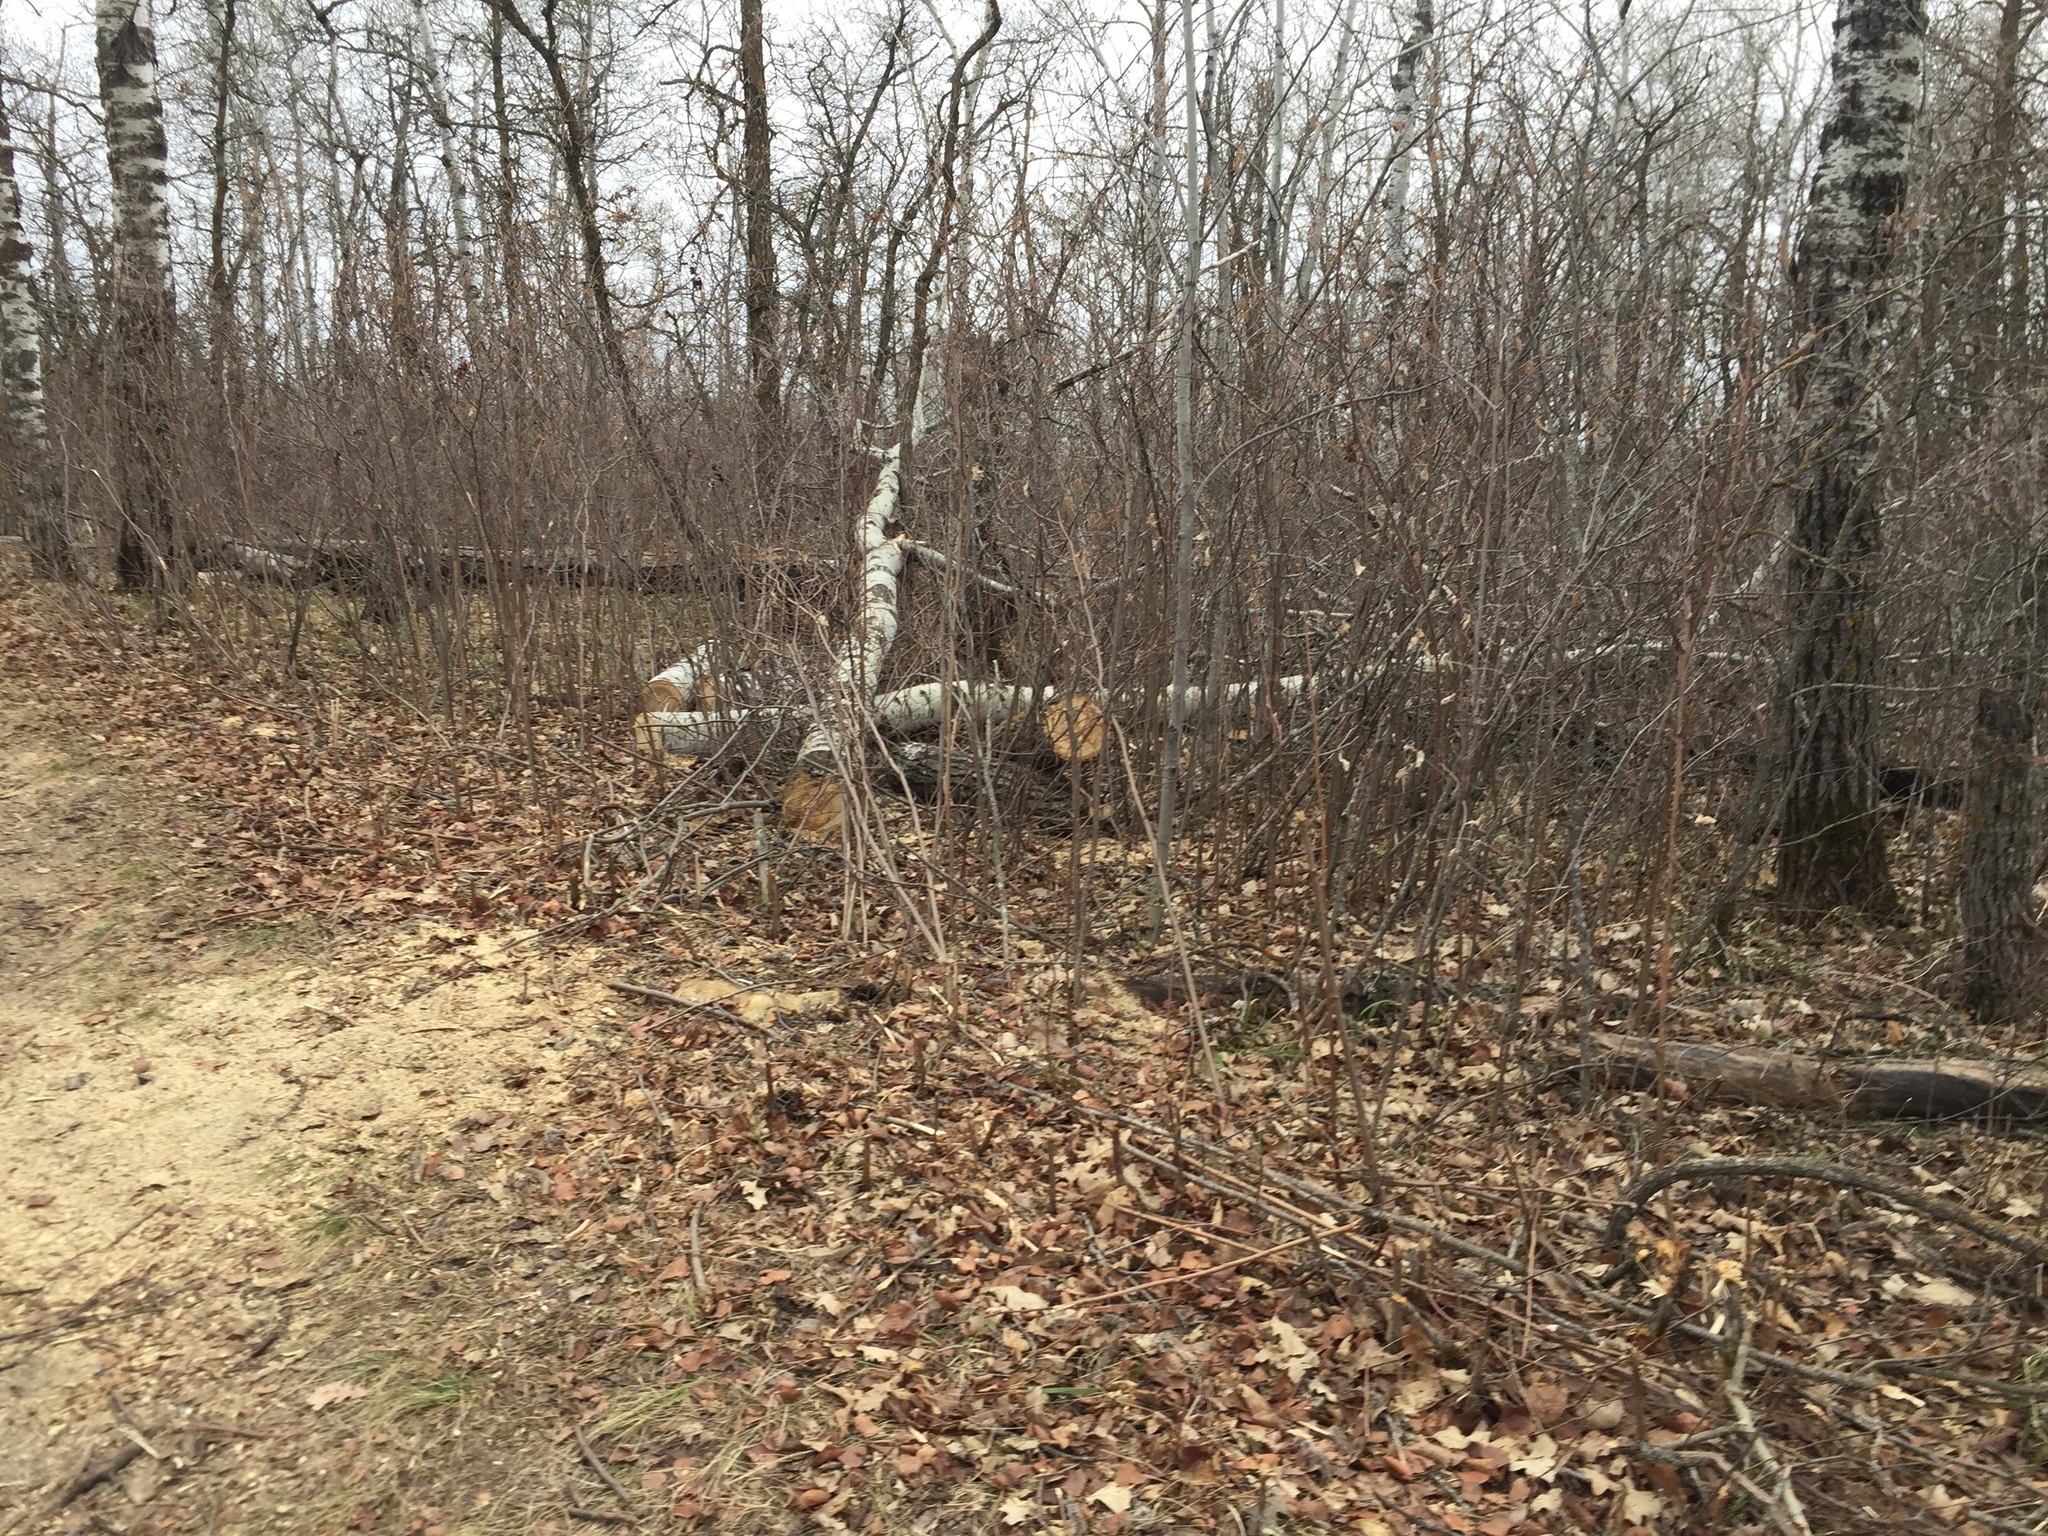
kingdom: Plantae
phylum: Tracheophyta
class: Magnoliopsida
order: Malpighiales
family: Salicaceae
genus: Populus
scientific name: Populus tremuloides
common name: Quaking aspen
